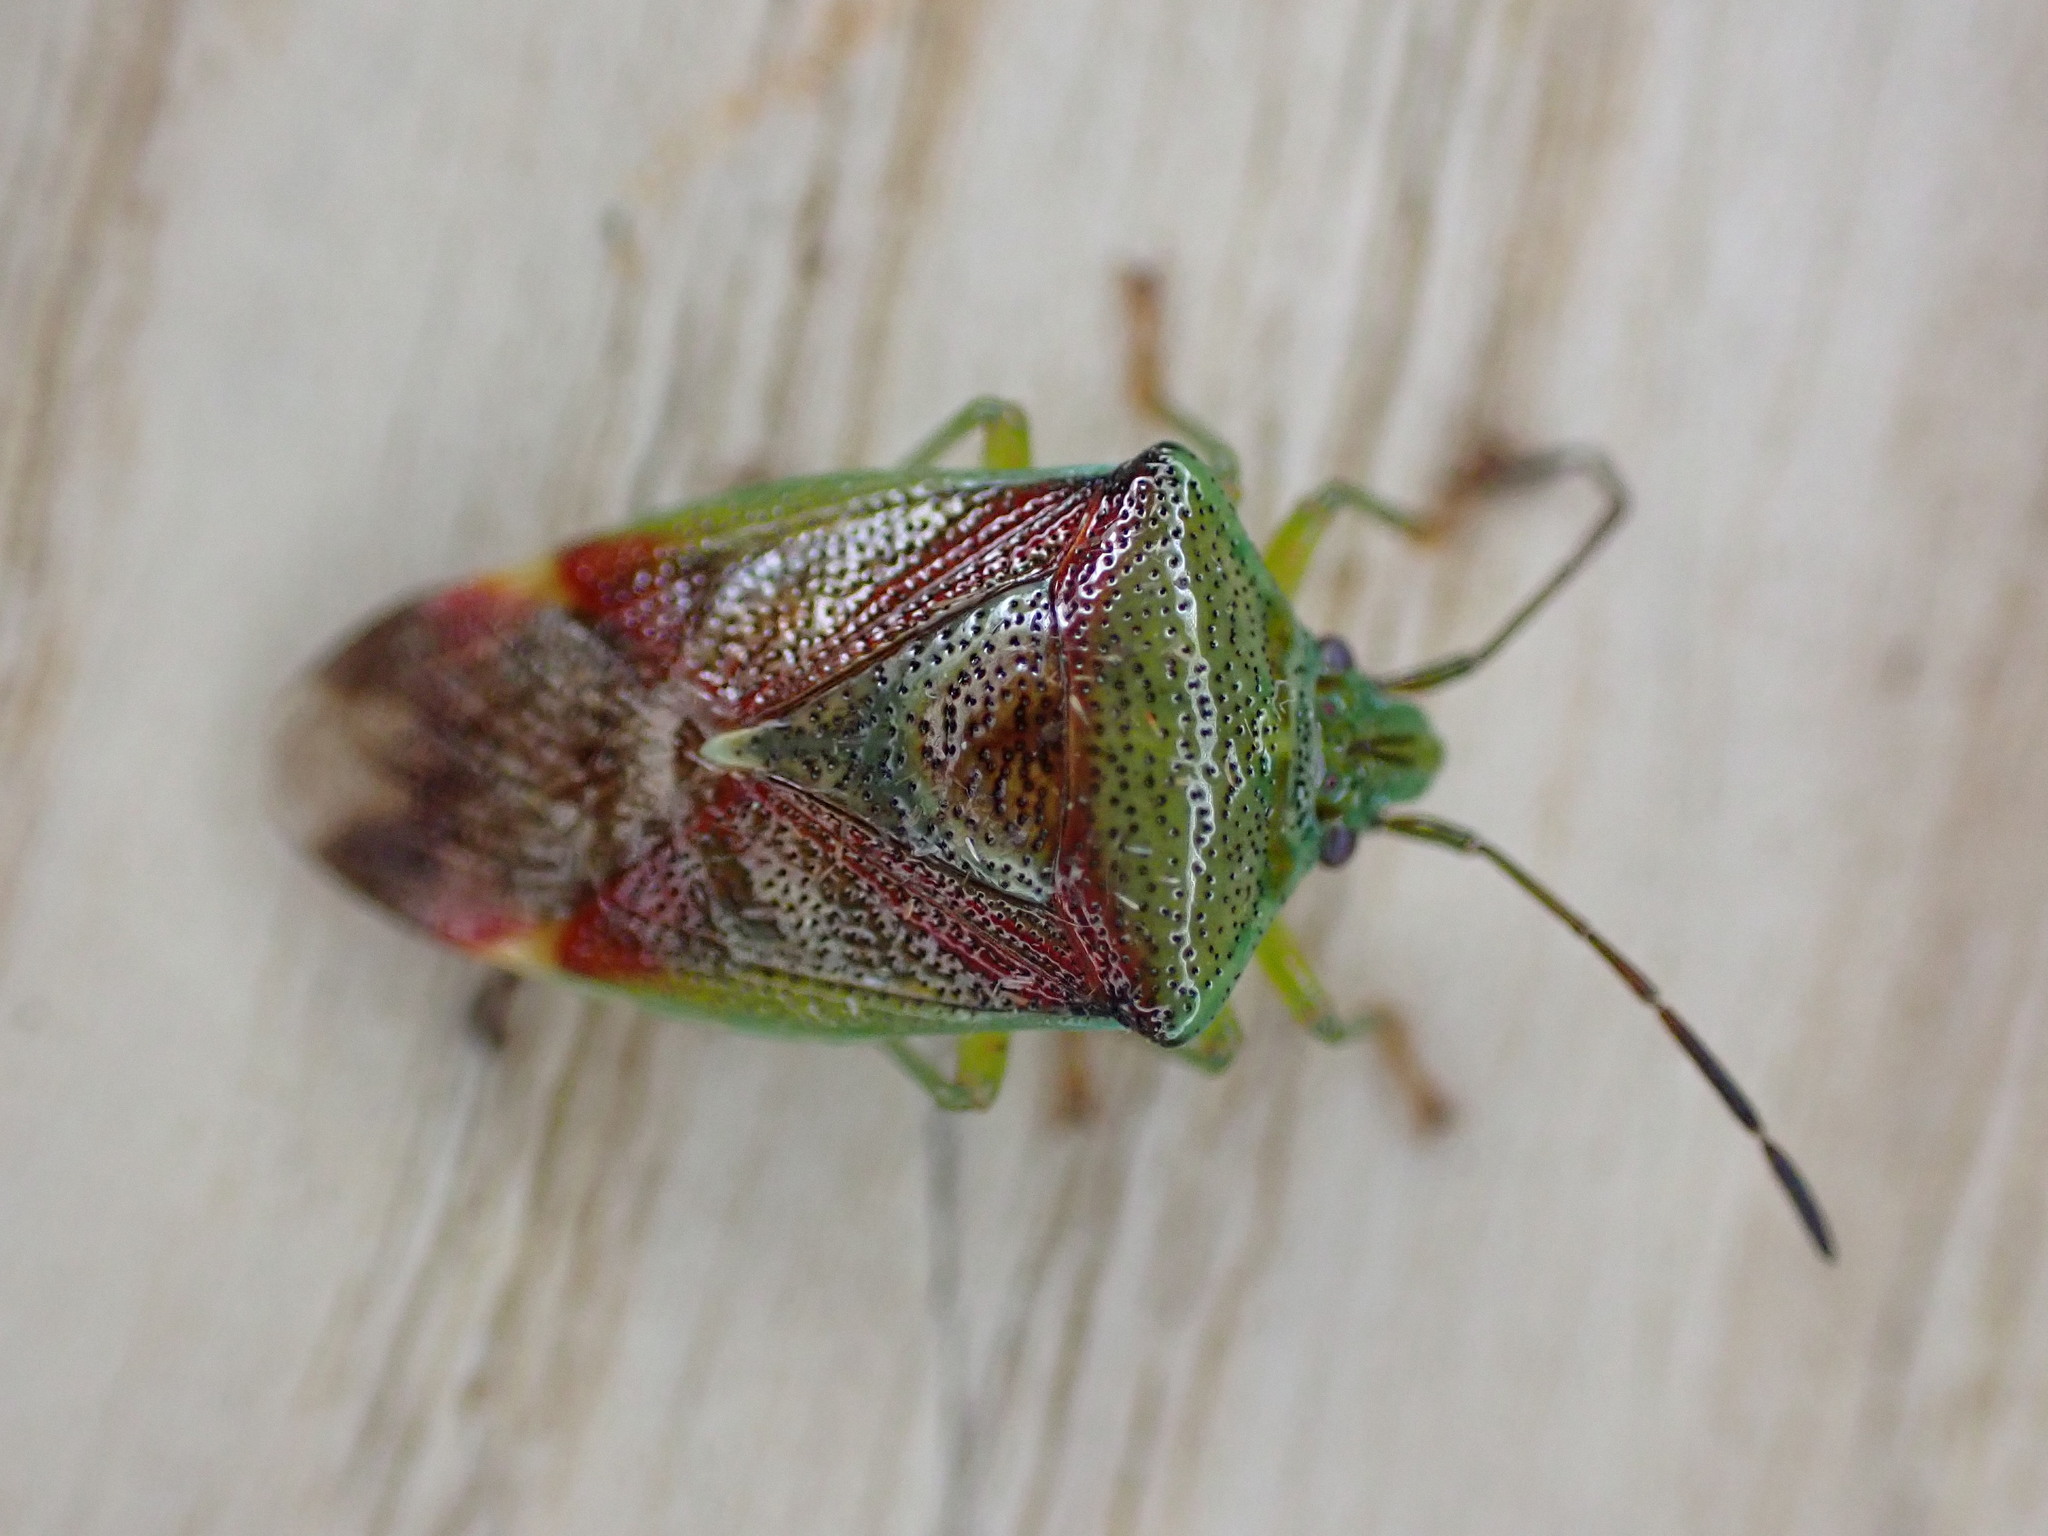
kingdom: Animalia
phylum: Arthropoda
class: Insecta
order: Hemiptera
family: Acanthosomatidae
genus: Elasmostethus
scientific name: Elasmostethus interstinctus
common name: Birch shieldbug
